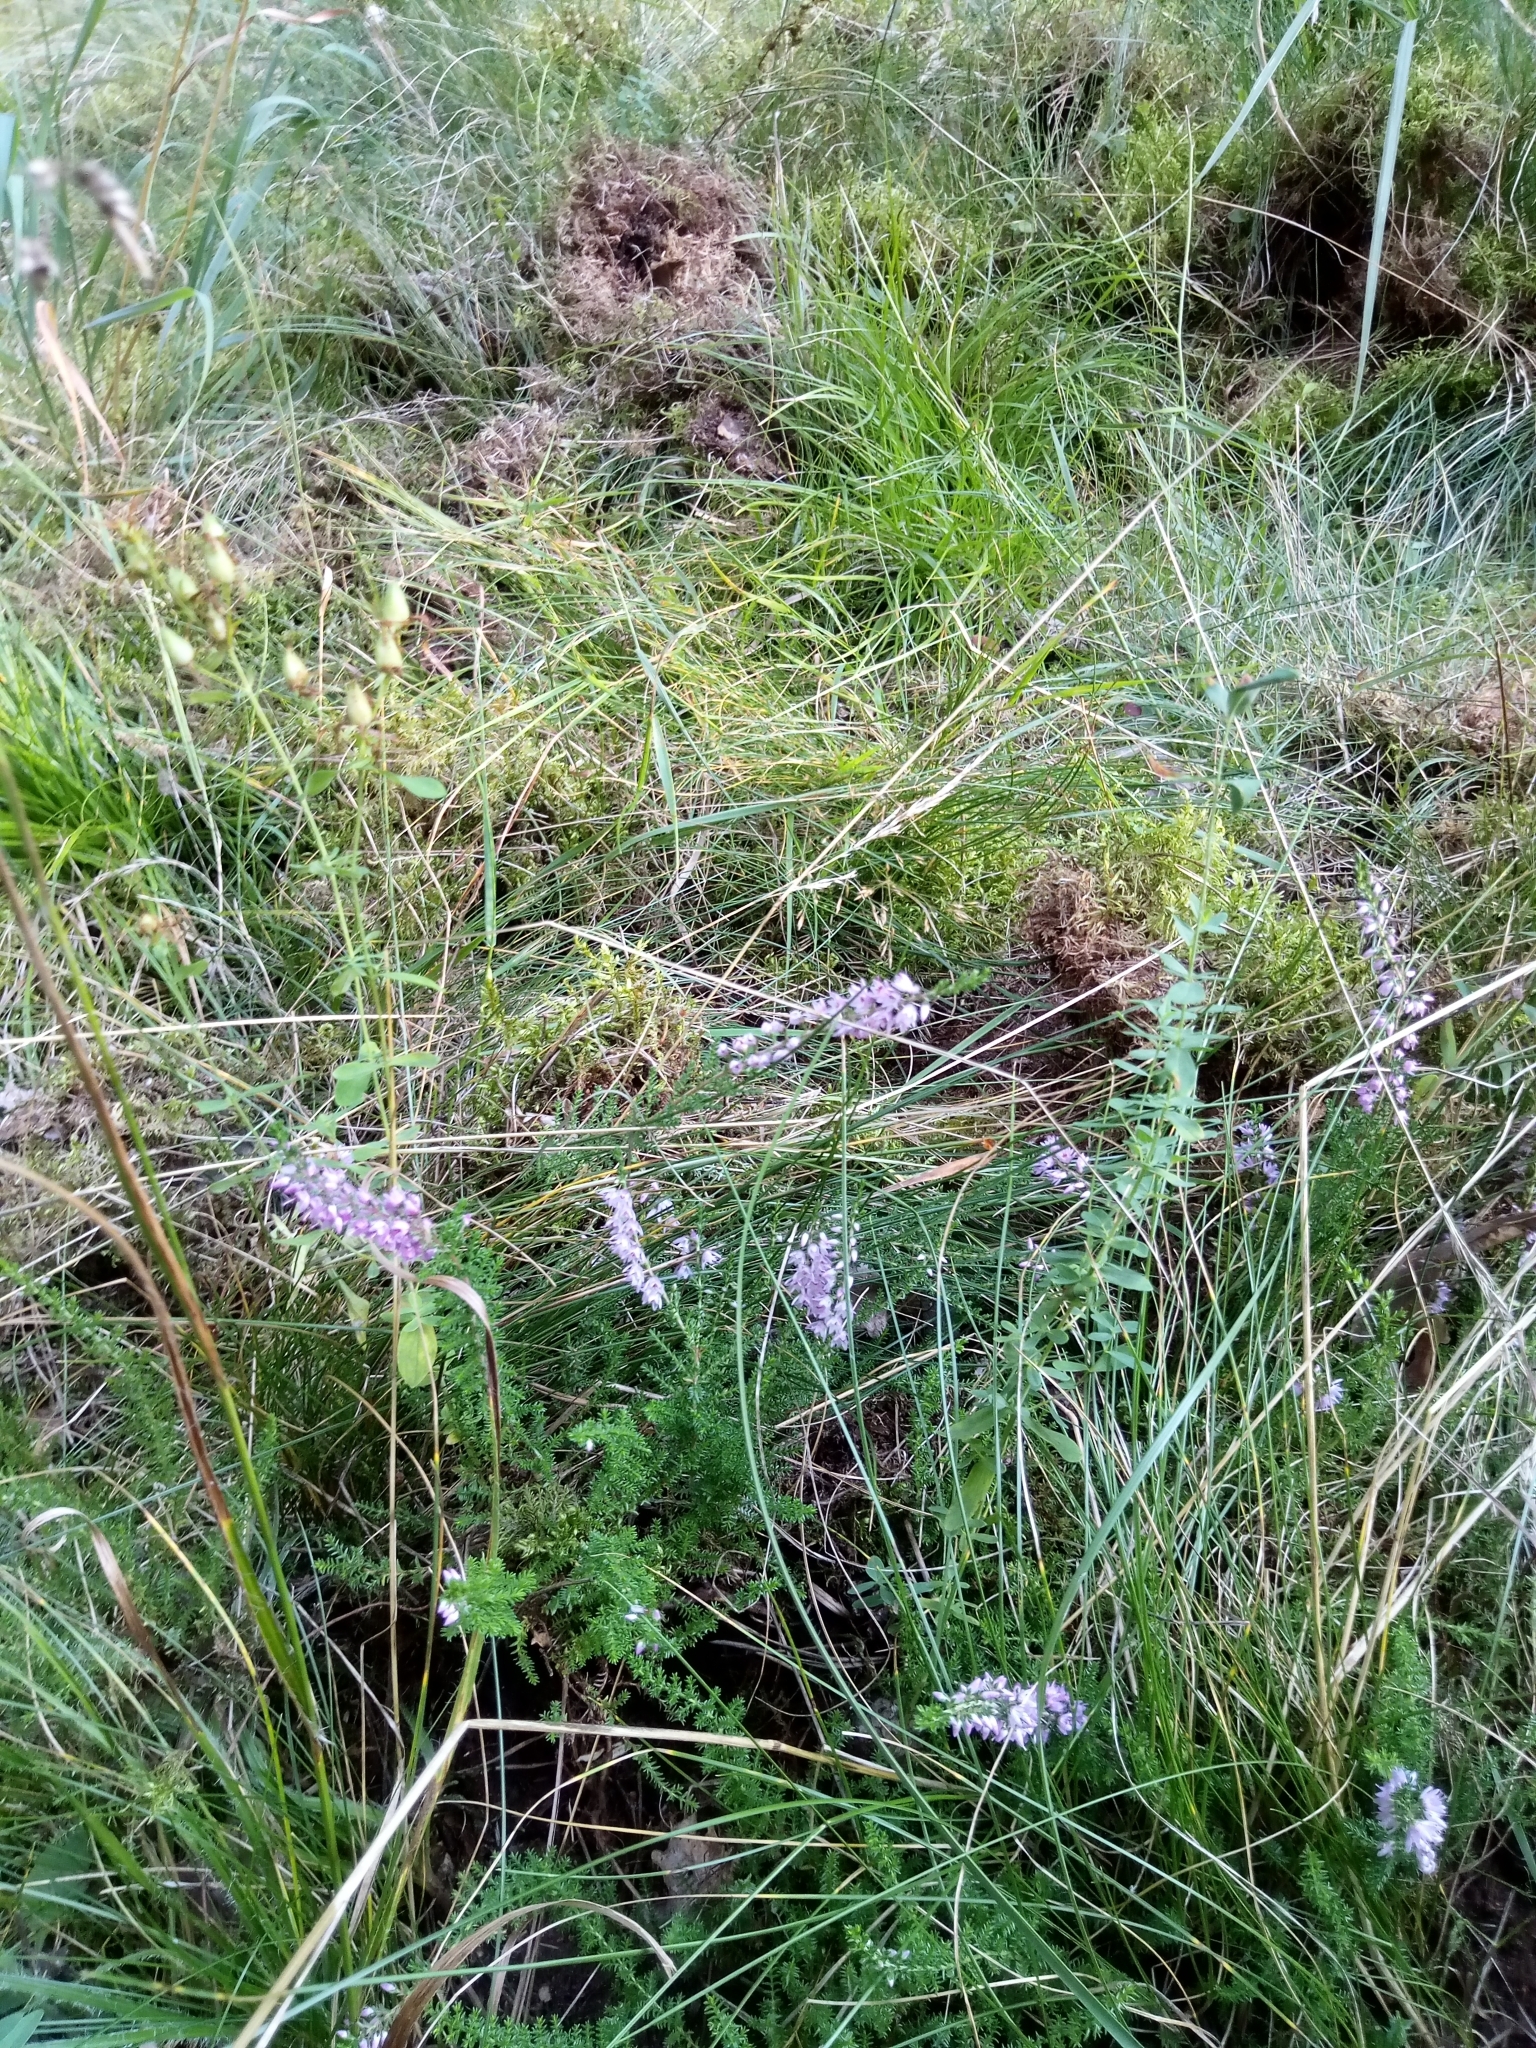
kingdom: Plantae
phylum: Tracheophyta
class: Magnoliopsida
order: Ericales
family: Ericaceae
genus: Calluna
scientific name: Calluna vulgaris
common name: Heather
